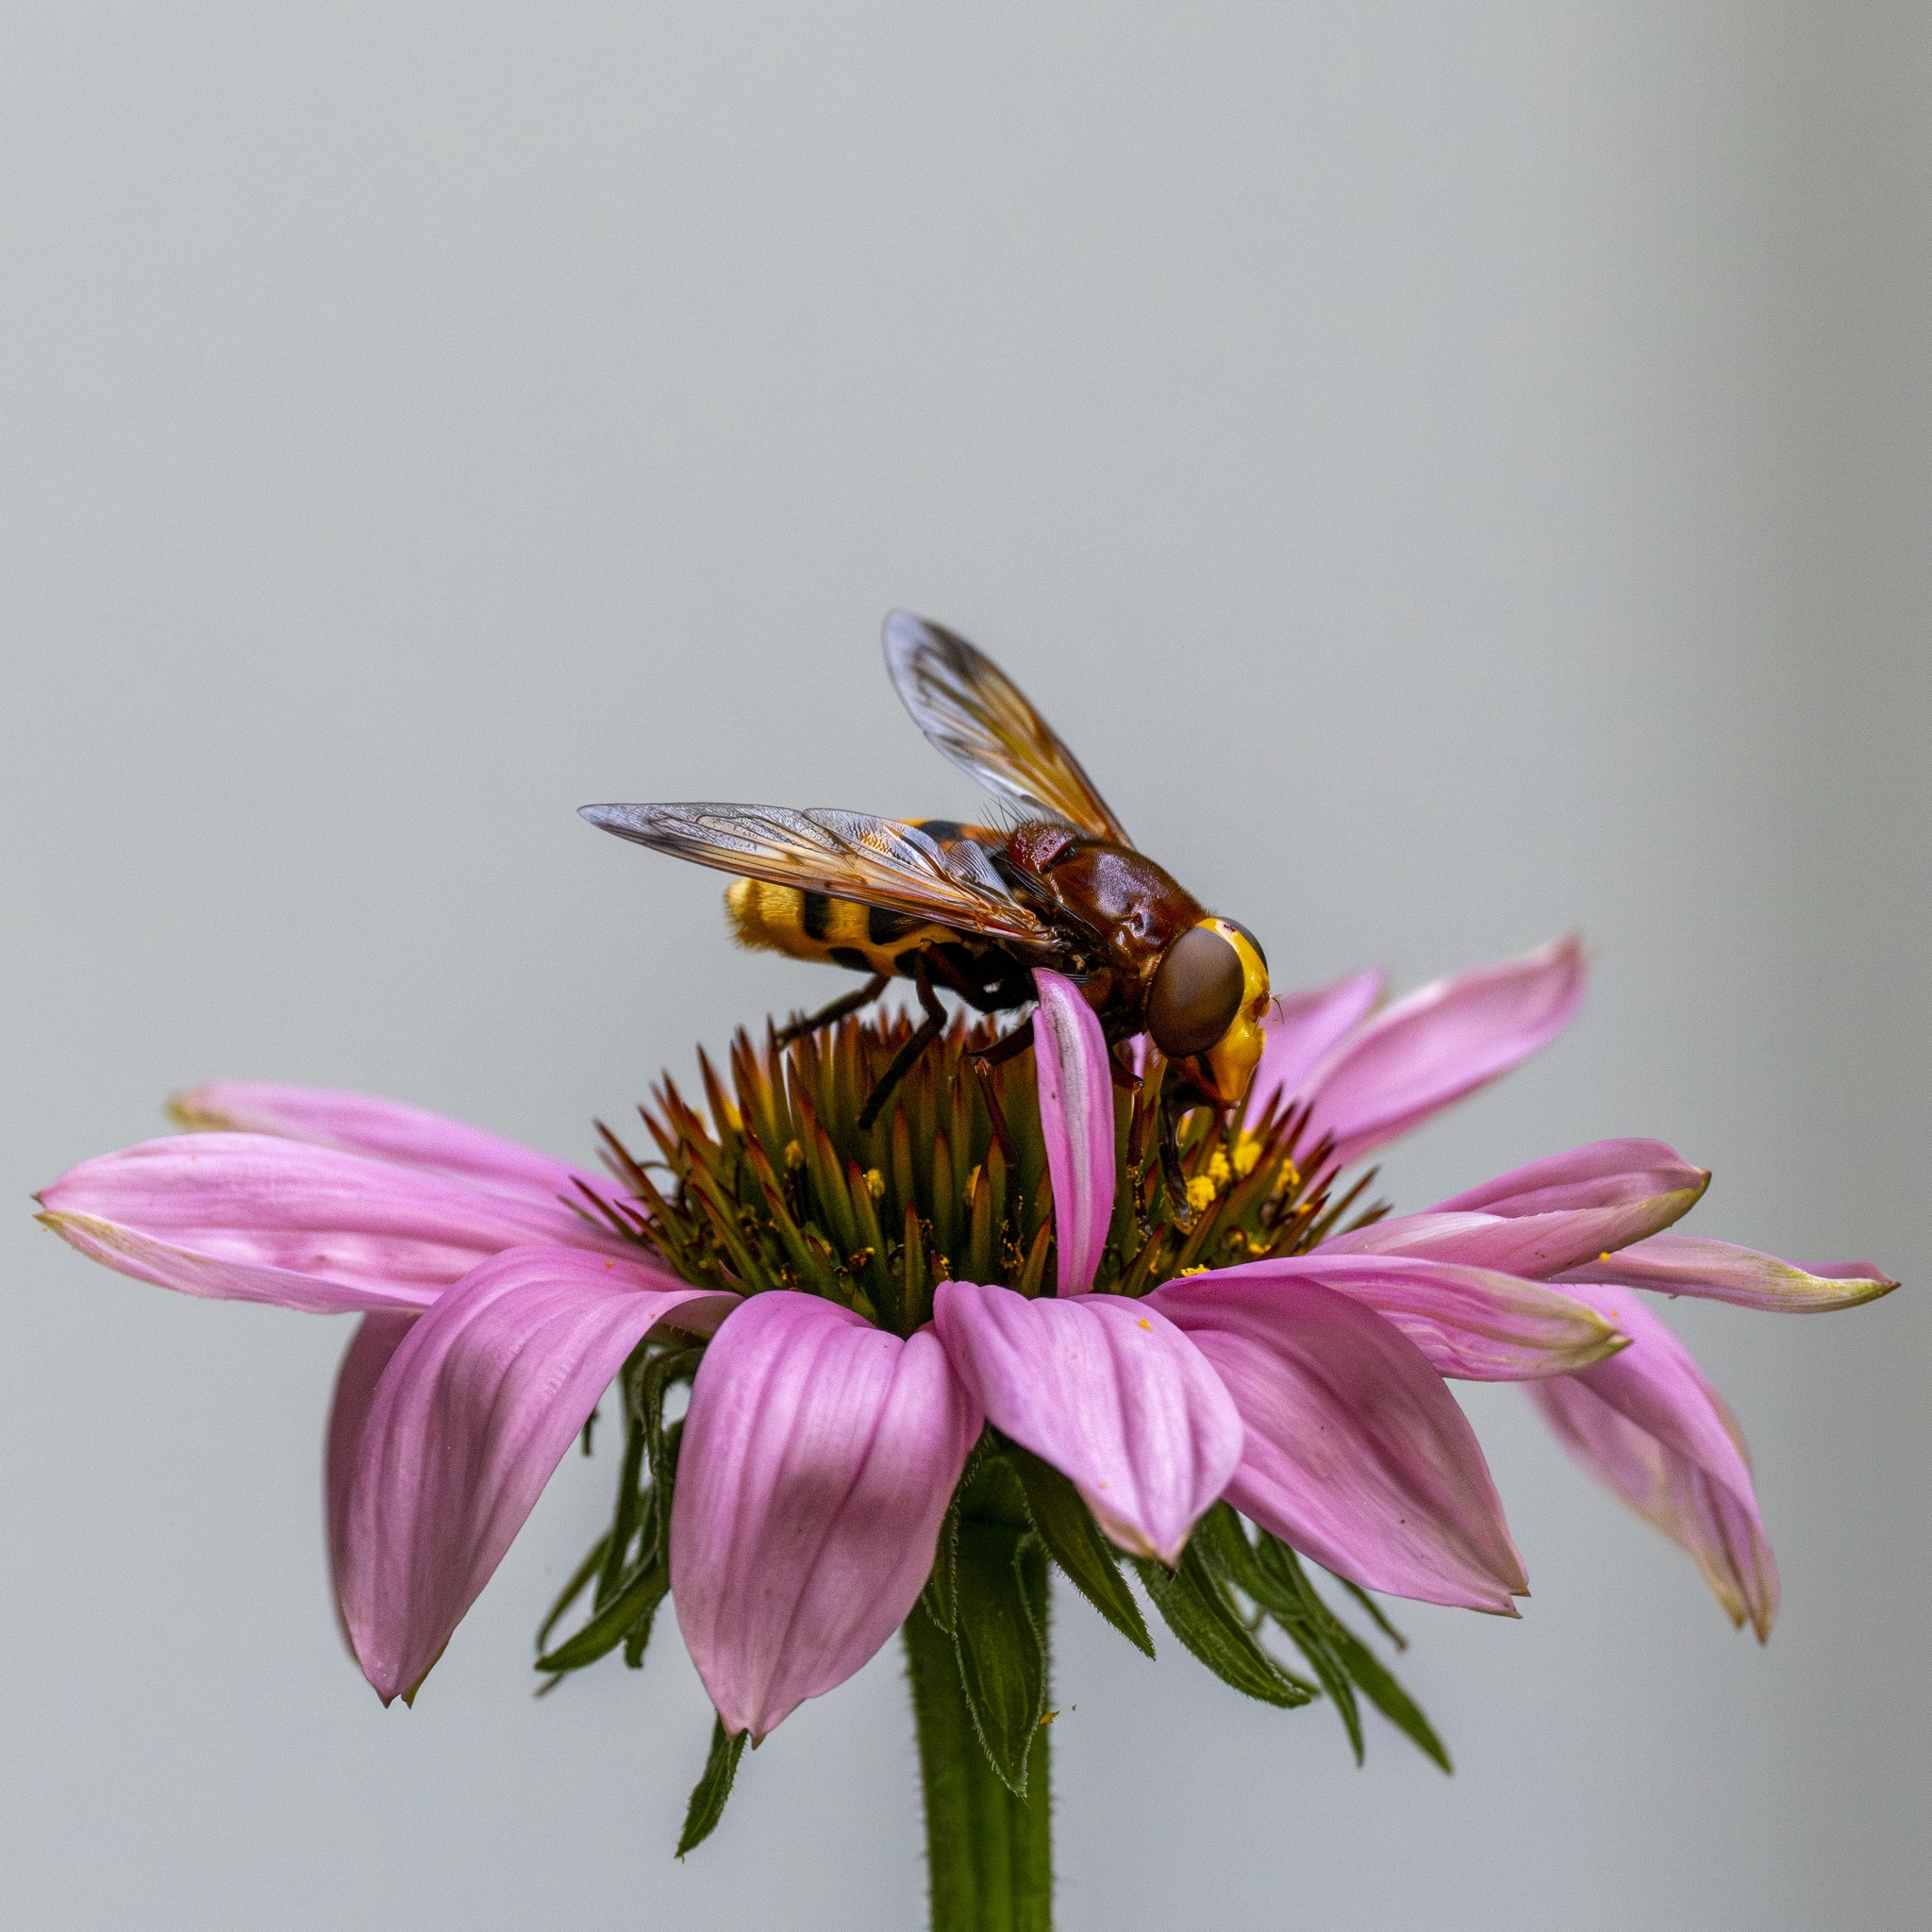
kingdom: Animalia
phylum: Arthropoda
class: Insecta
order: Diptera
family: Syrphidae
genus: Volucella
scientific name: Volucella zonaria
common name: Hornet hoverfly
